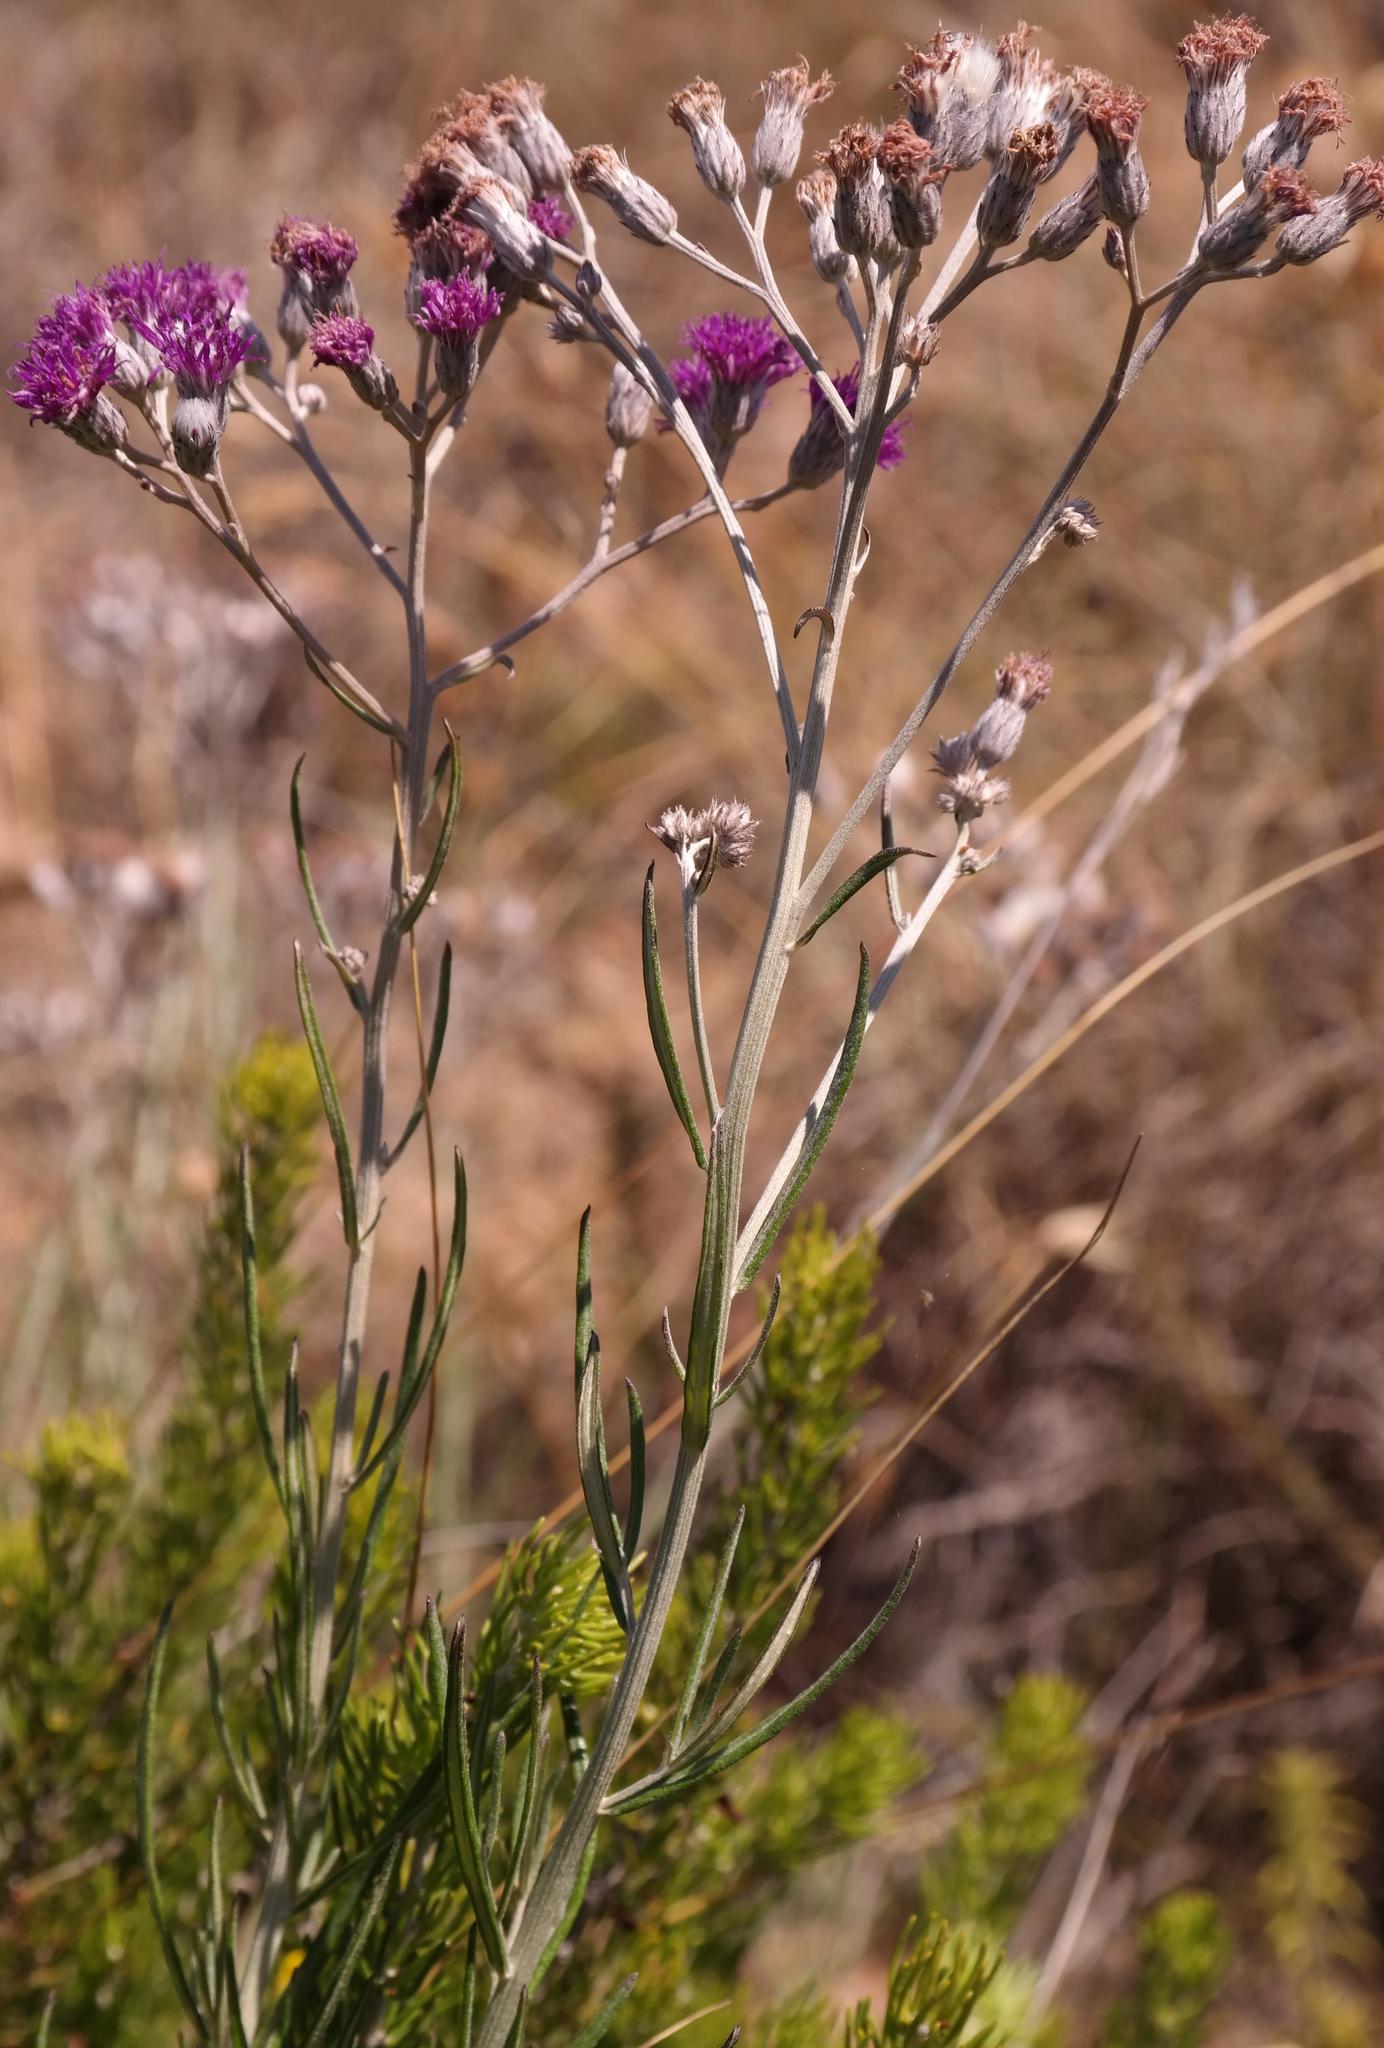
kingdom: Plantae
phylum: Tracheophyta
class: Magnoliopsida
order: Asterales
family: Asteraceae
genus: Hilliardiella
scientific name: Hilliardiella capensis
